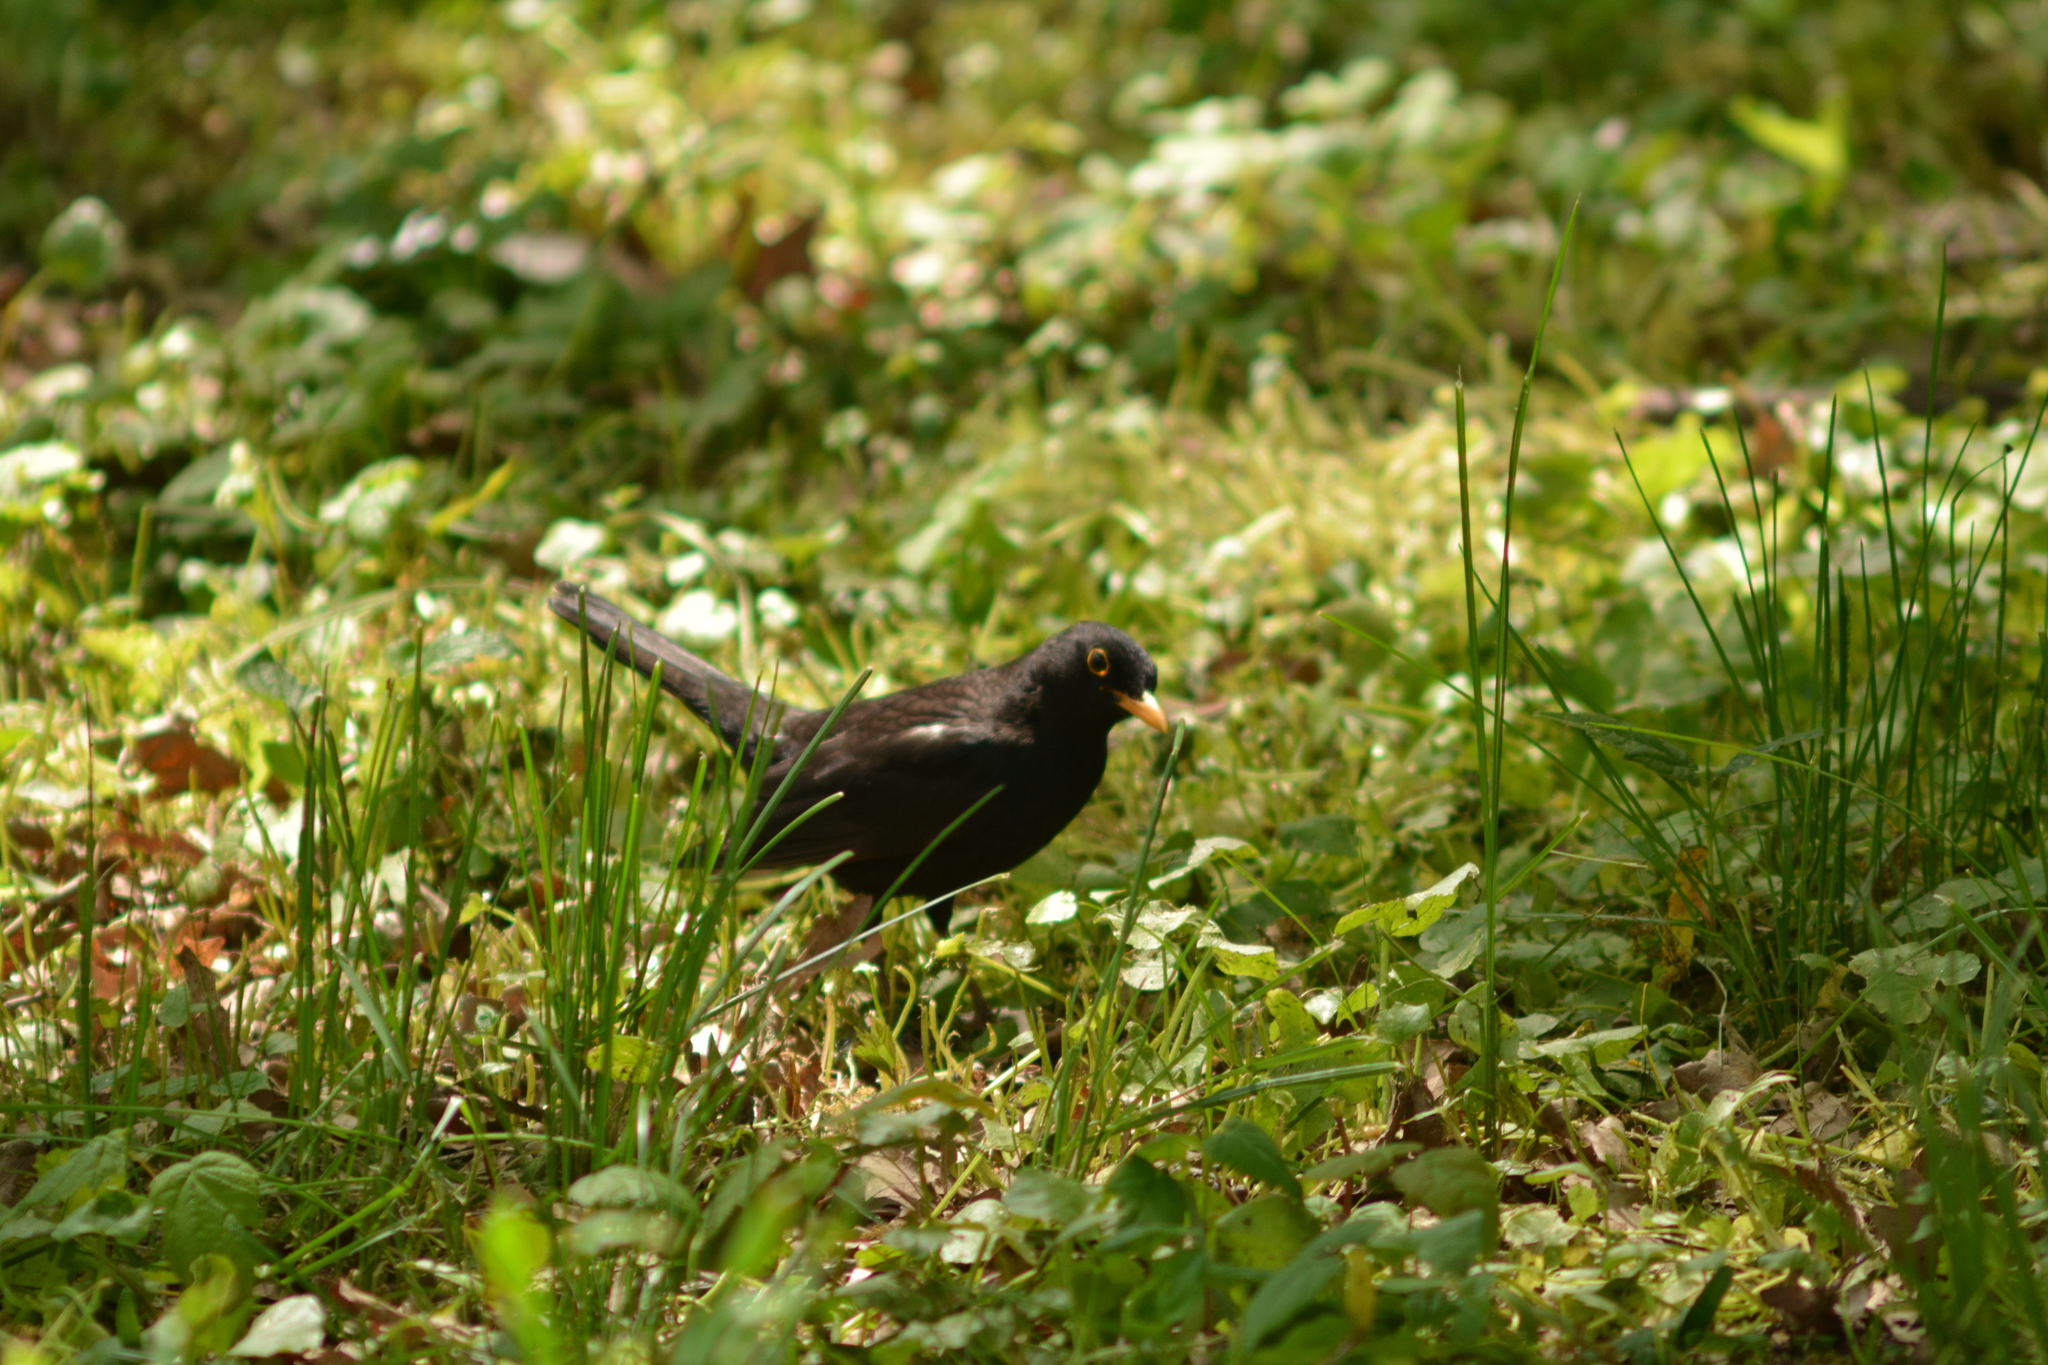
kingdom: Animalia
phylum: Chordata
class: Aves
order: Passeriformes
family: Turdidae
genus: Turdus
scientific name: Turdus merula
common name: Common blackbird
